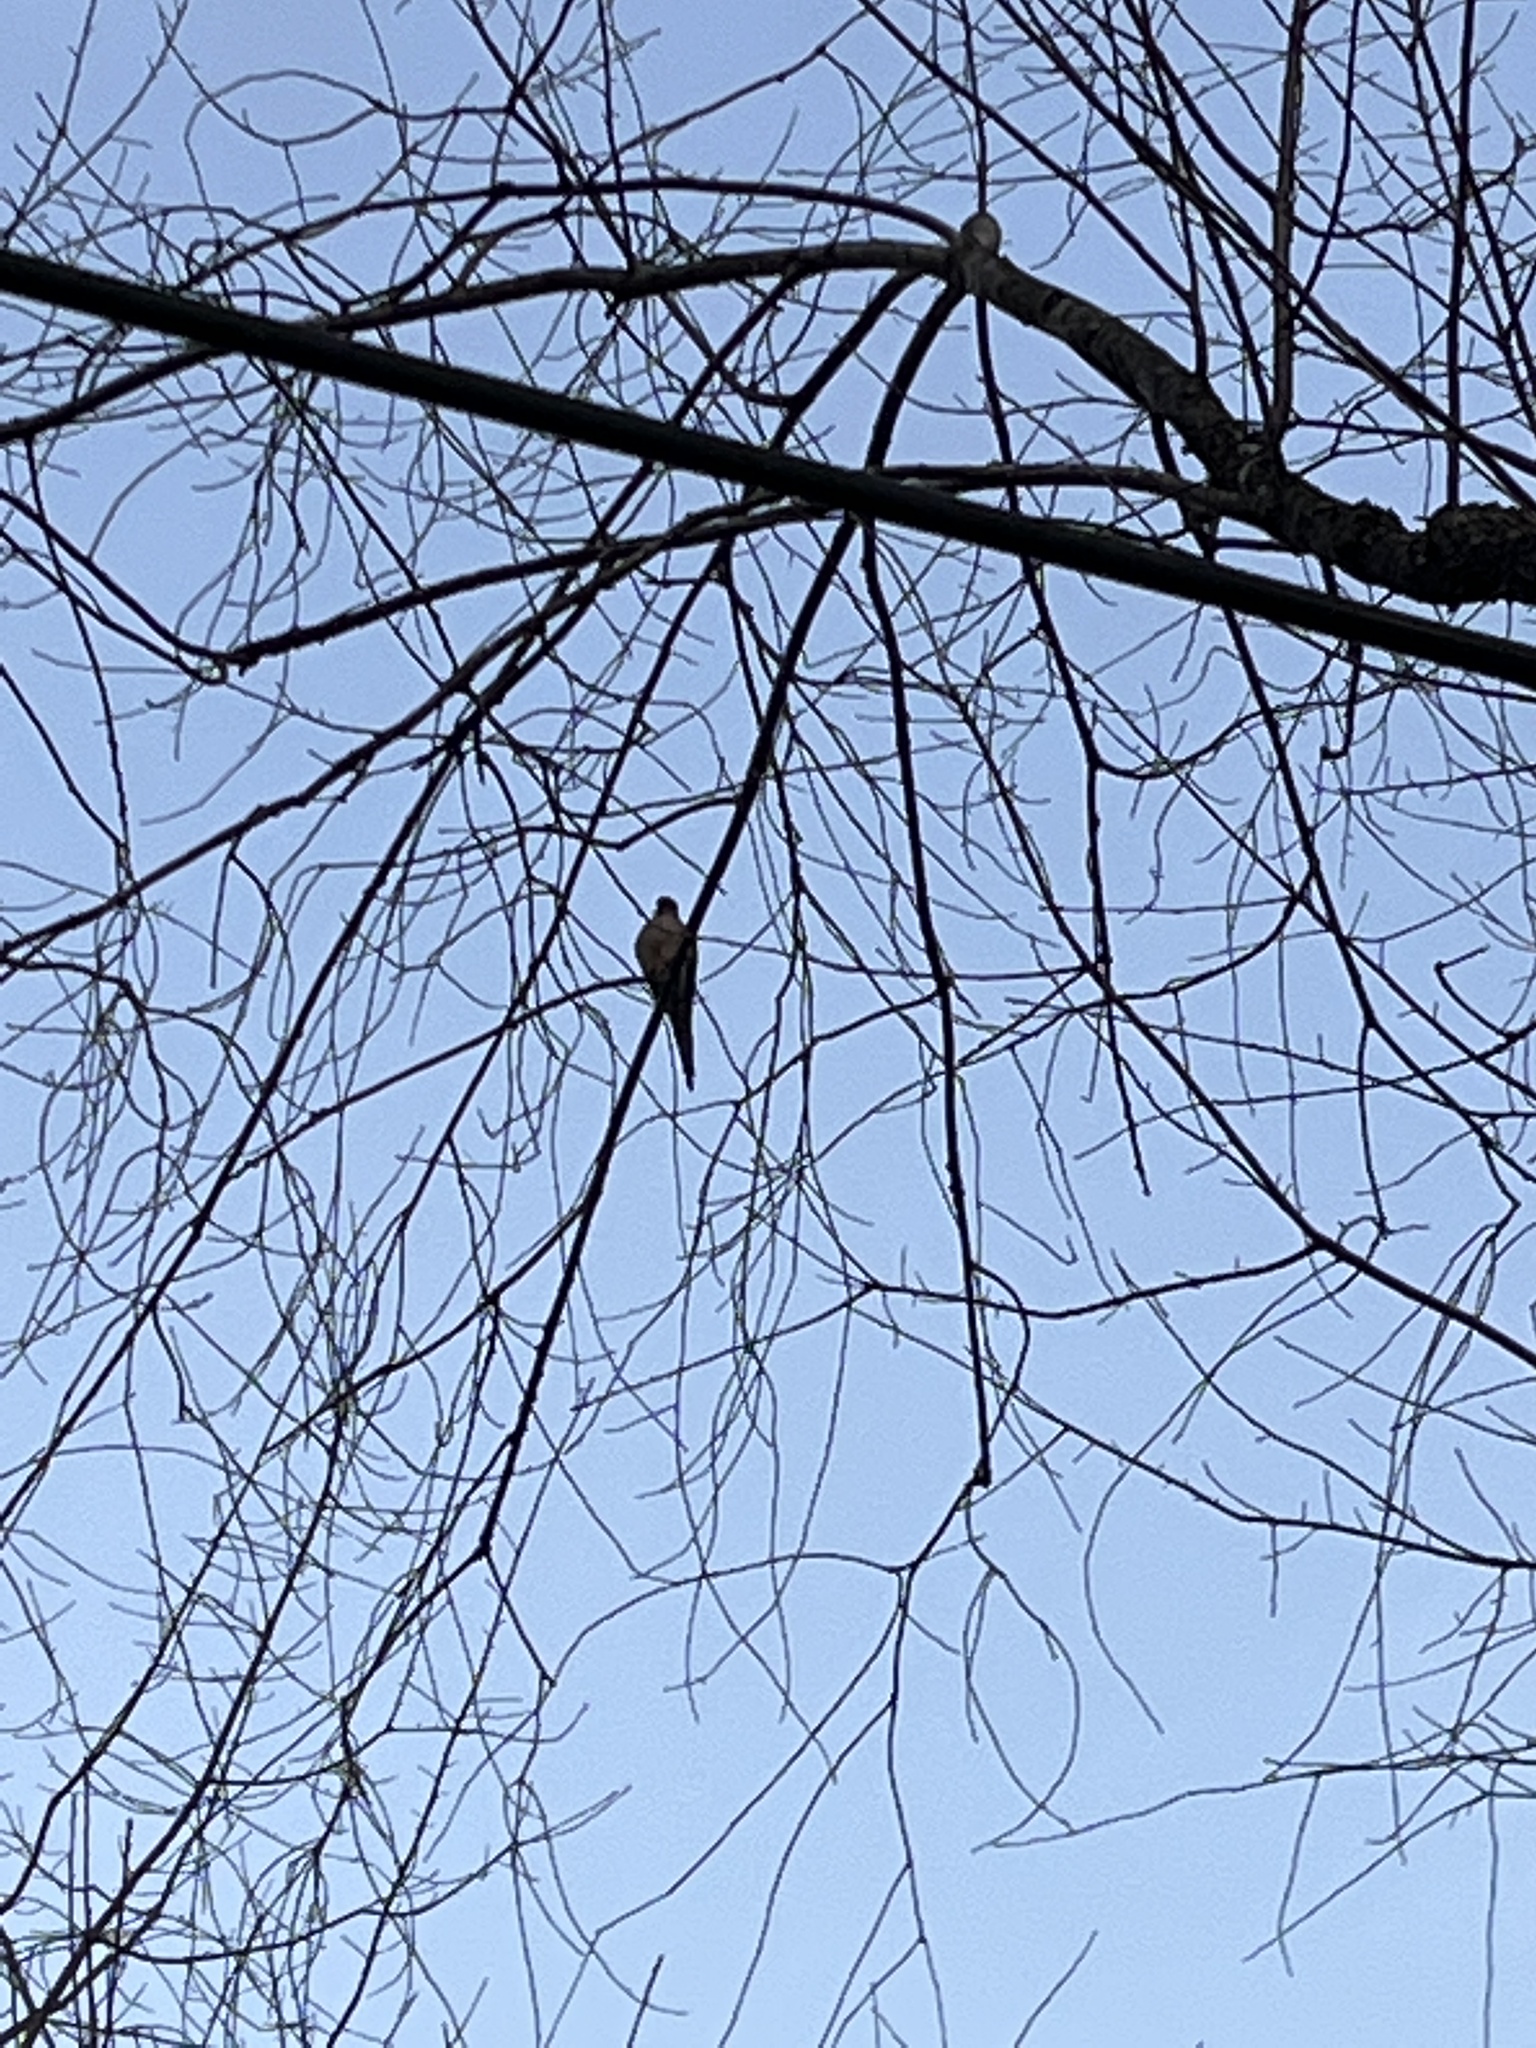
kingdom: Animalia
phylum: Chordata
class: Aves
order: Columbiformes
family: Columbidae
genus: Zenaida
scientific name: Zenaida macroura
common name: Mourning dove
